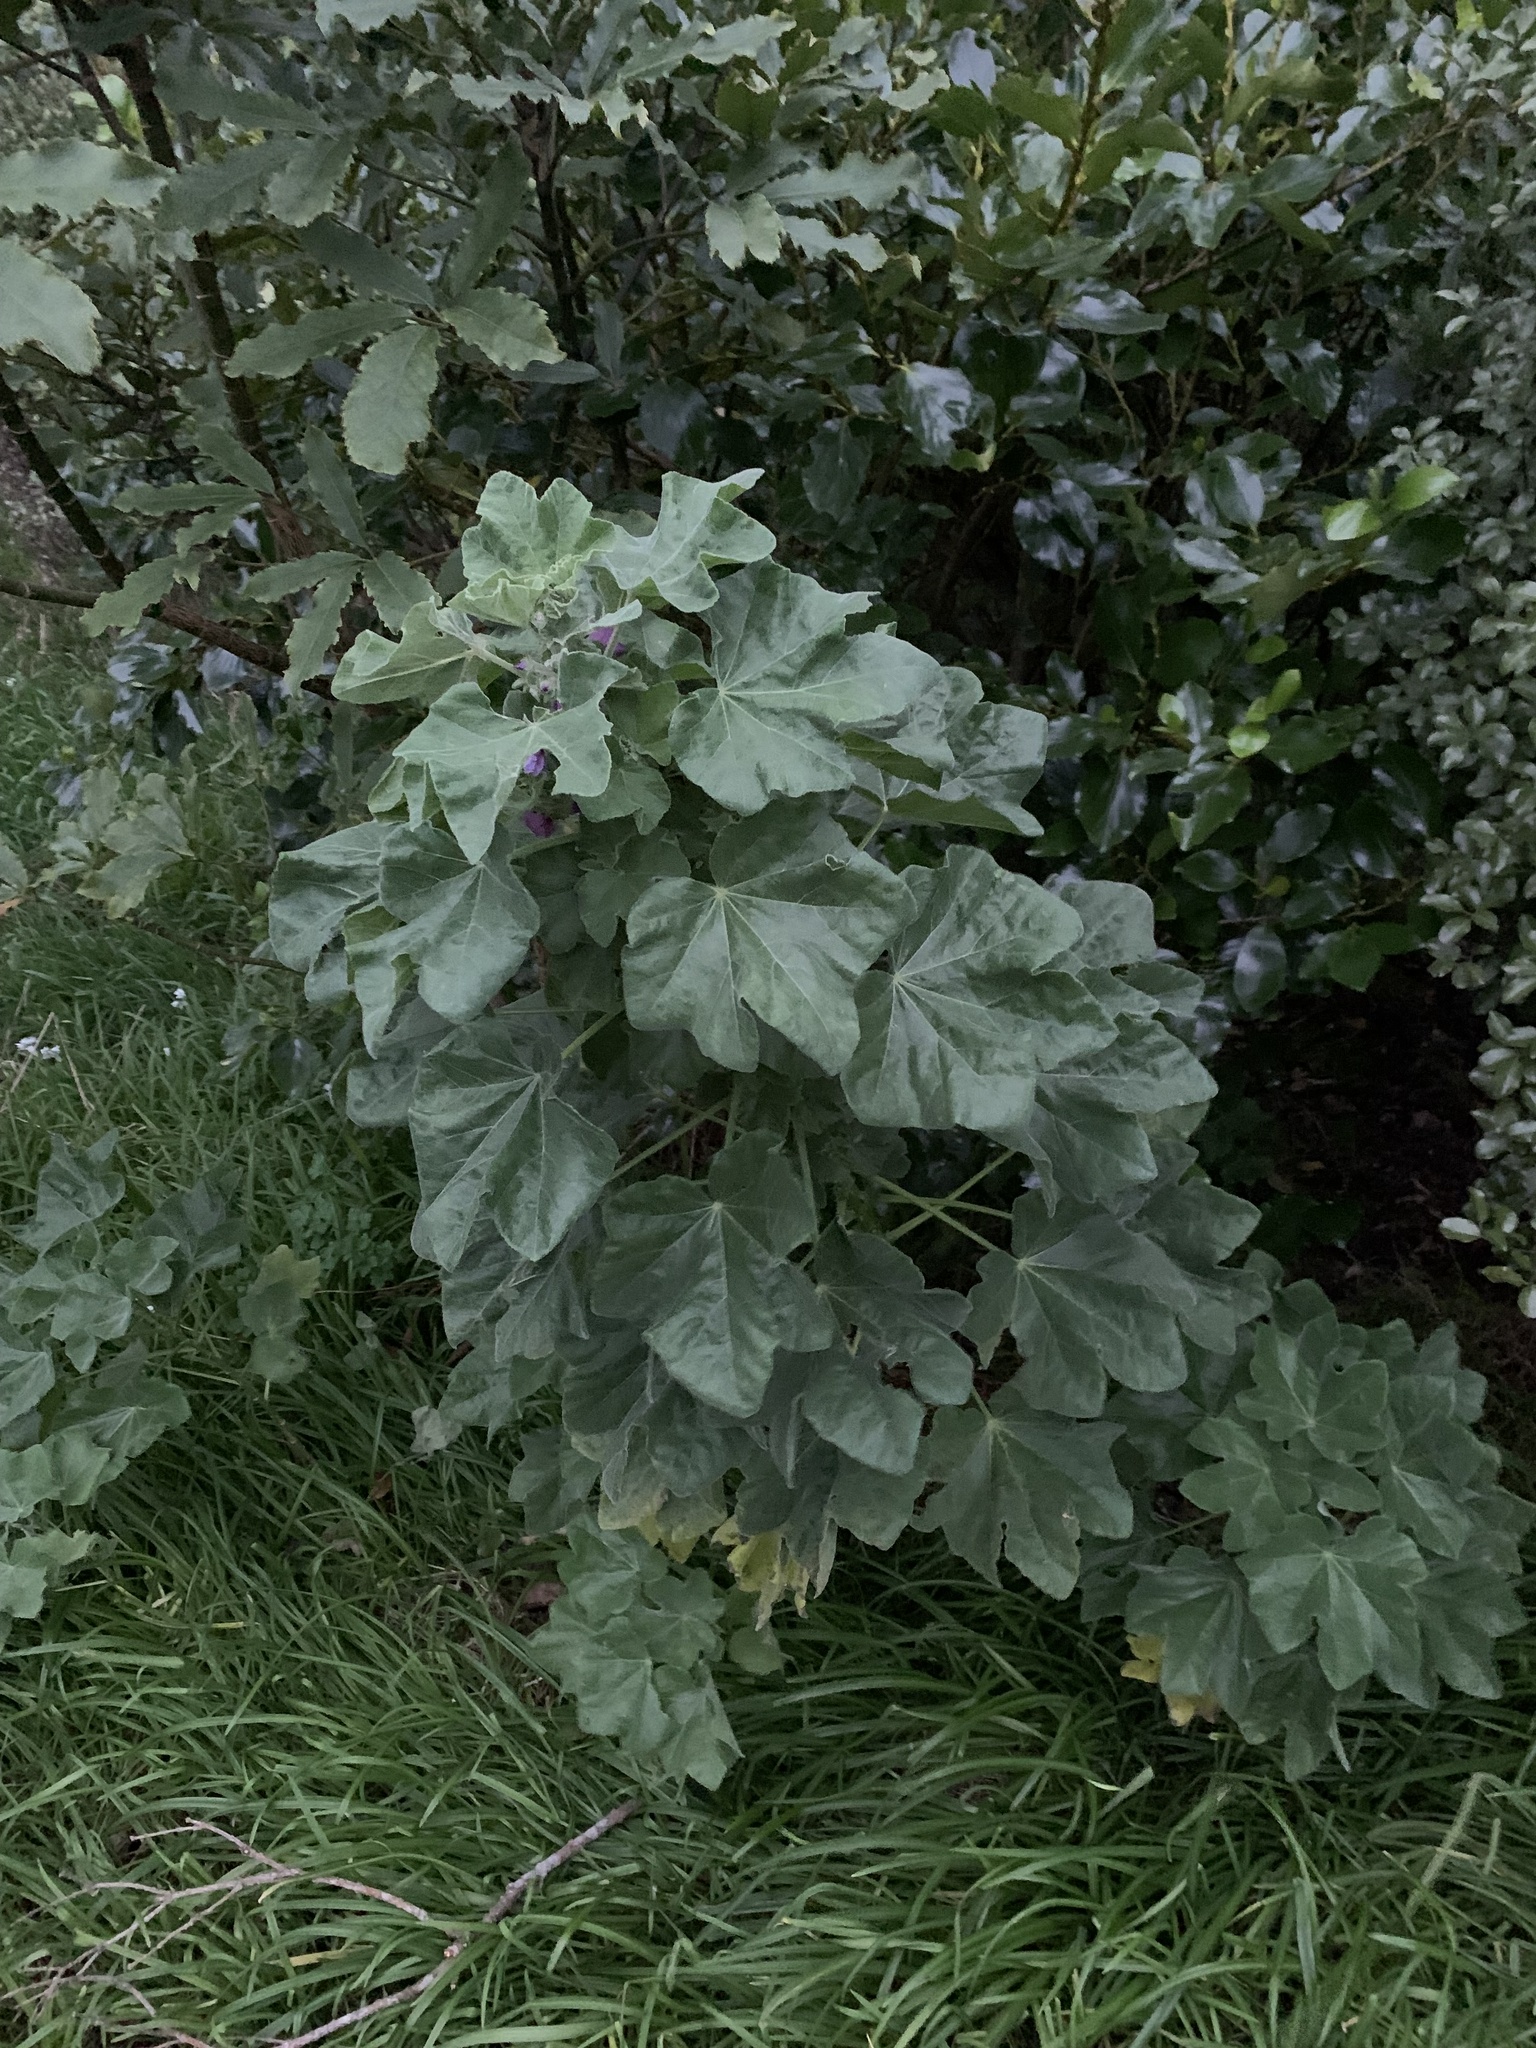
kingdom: Plantae
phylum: Tracheophyta
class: Magnoliopsida
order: Malvales
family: Malvaceae
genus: Malva
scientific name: Malva arborea
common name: Tree mallow
